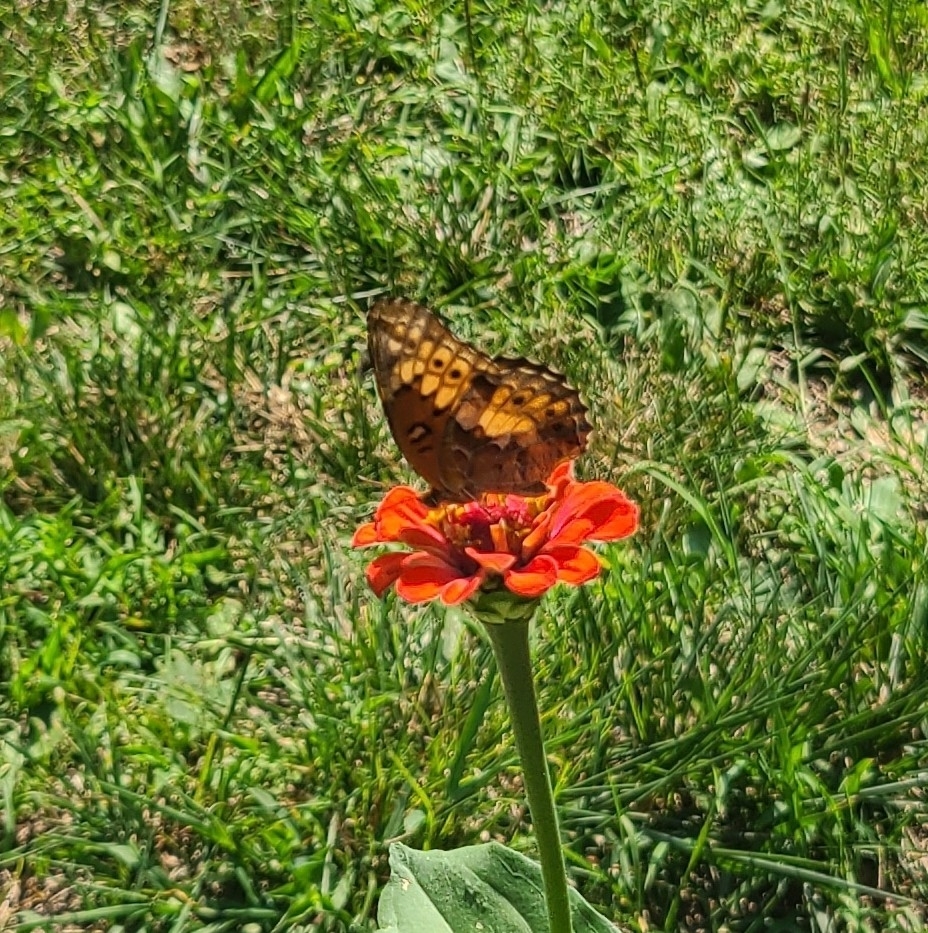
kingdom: Animalia
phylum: Arthropoda
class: Insecta
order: Lepidoptera
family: Nymphalidae
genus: Euptoieta
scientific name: Euptoieta claudia
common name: Variegated fritillary
